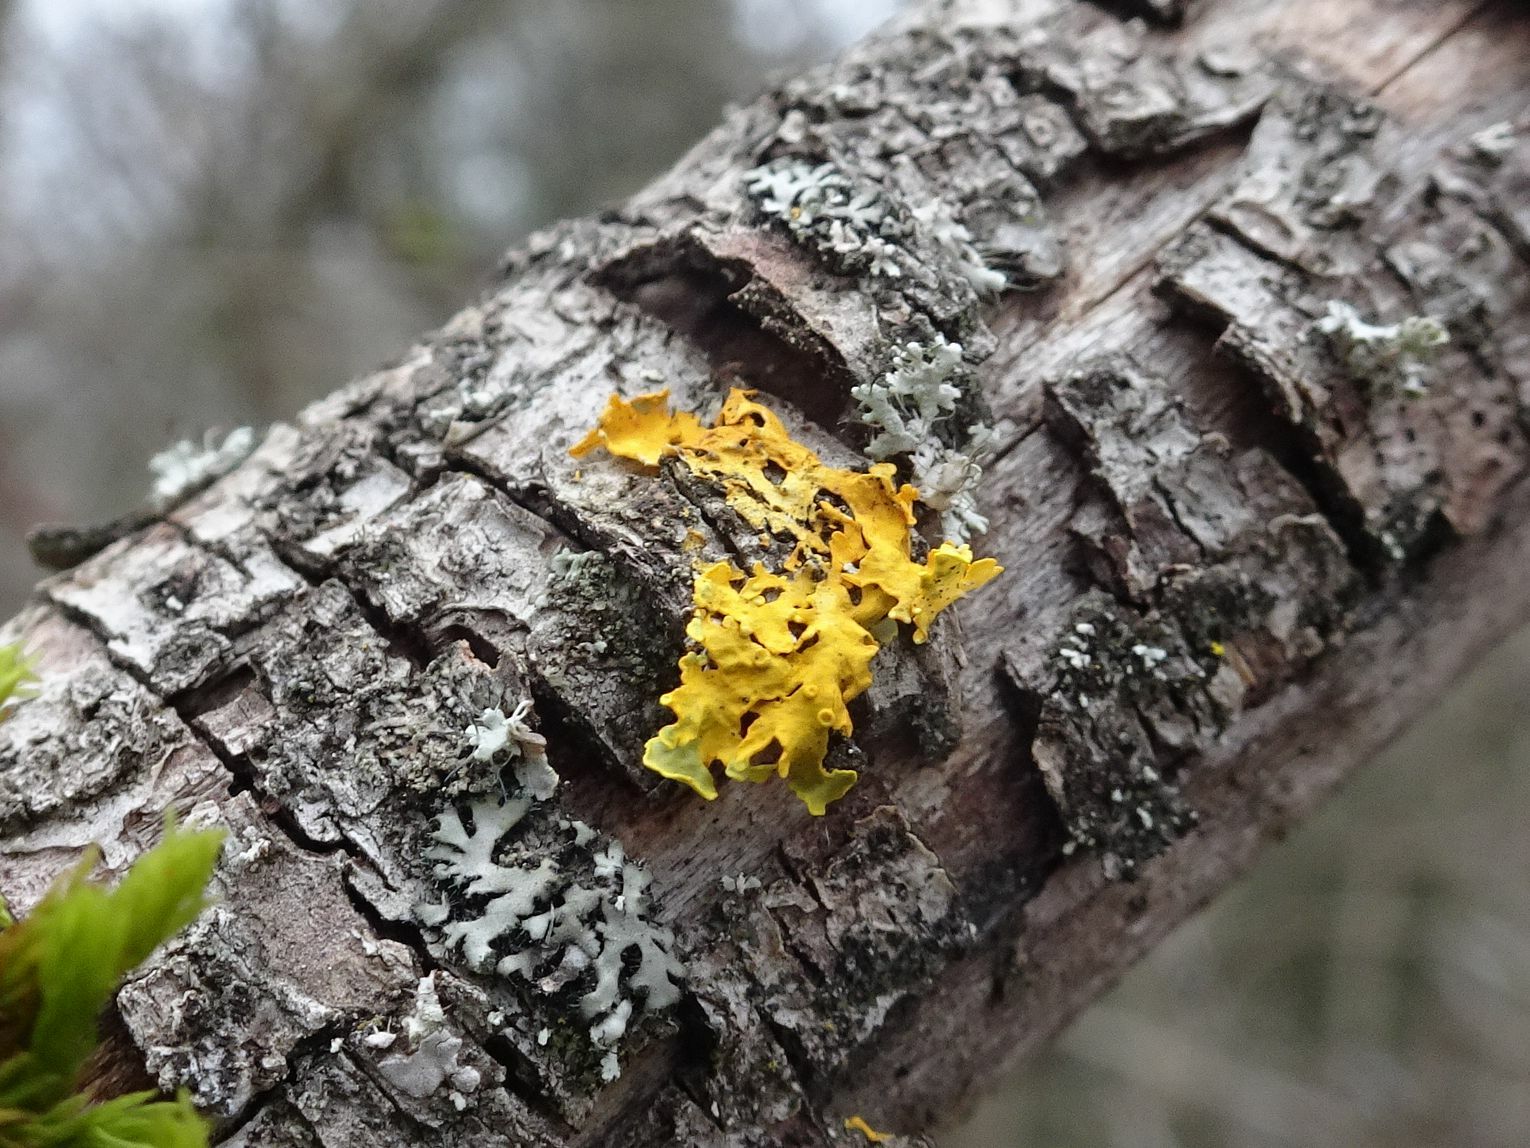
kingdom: Fungi
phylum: Ascomycota
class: Lecanoromycetes
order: Teloschistales
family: Teloschistaceae
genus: Xanthoria
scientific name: Xanthoria parietina
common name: Common orange lichen
